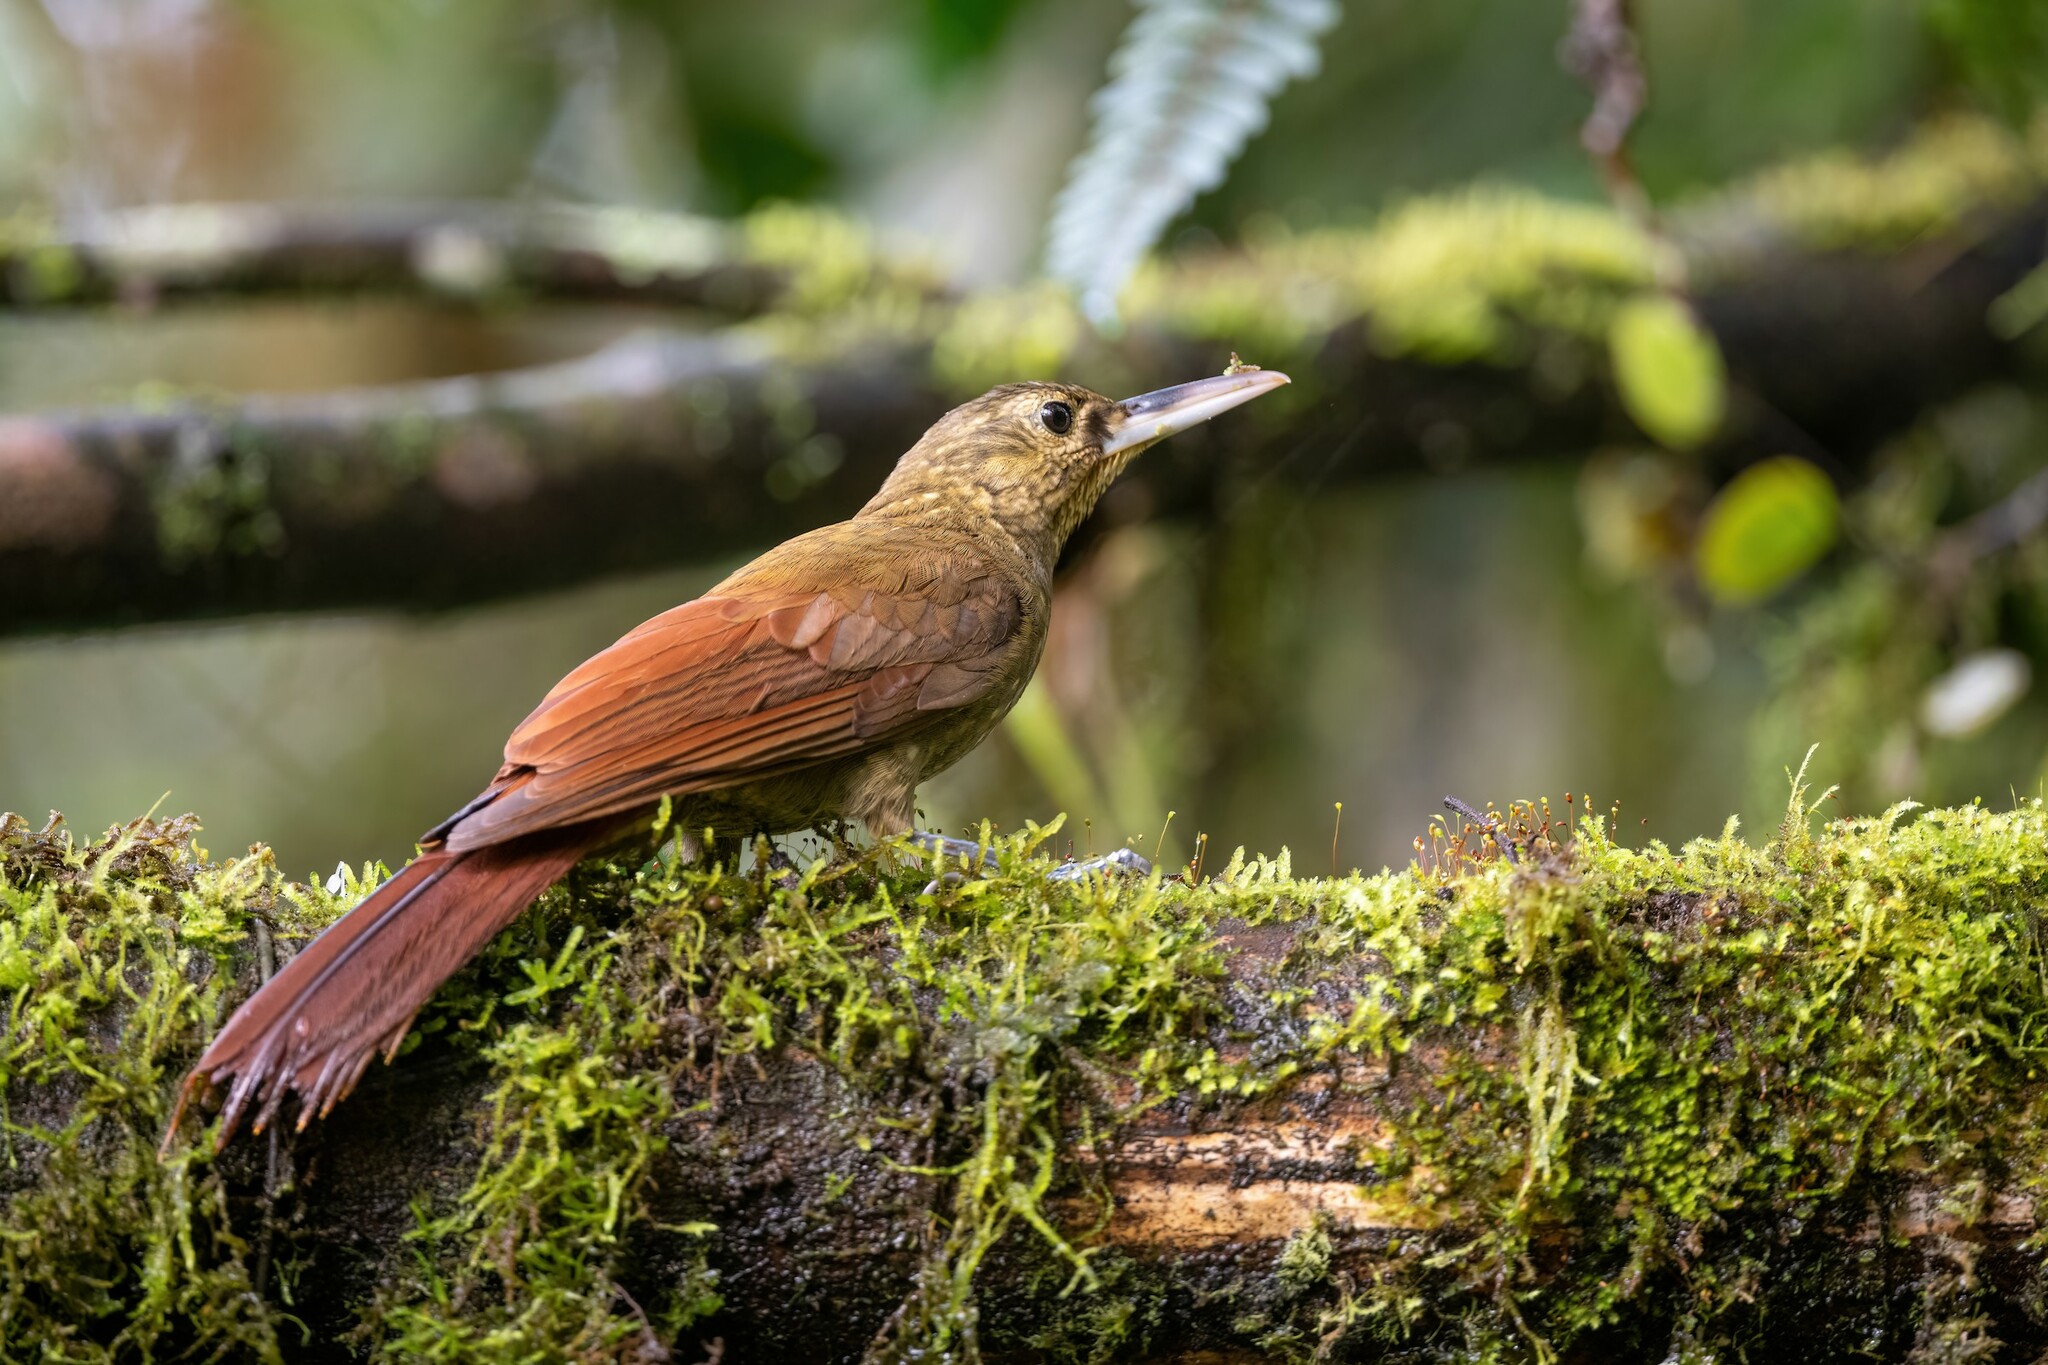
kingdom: Animalia
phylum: Chordata
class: Aves
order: Passeriformes
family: Furnariidae
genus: Xiphorhynchus
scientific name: Xiphorhynchus erythropygius
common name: Spotted woodcreeper
